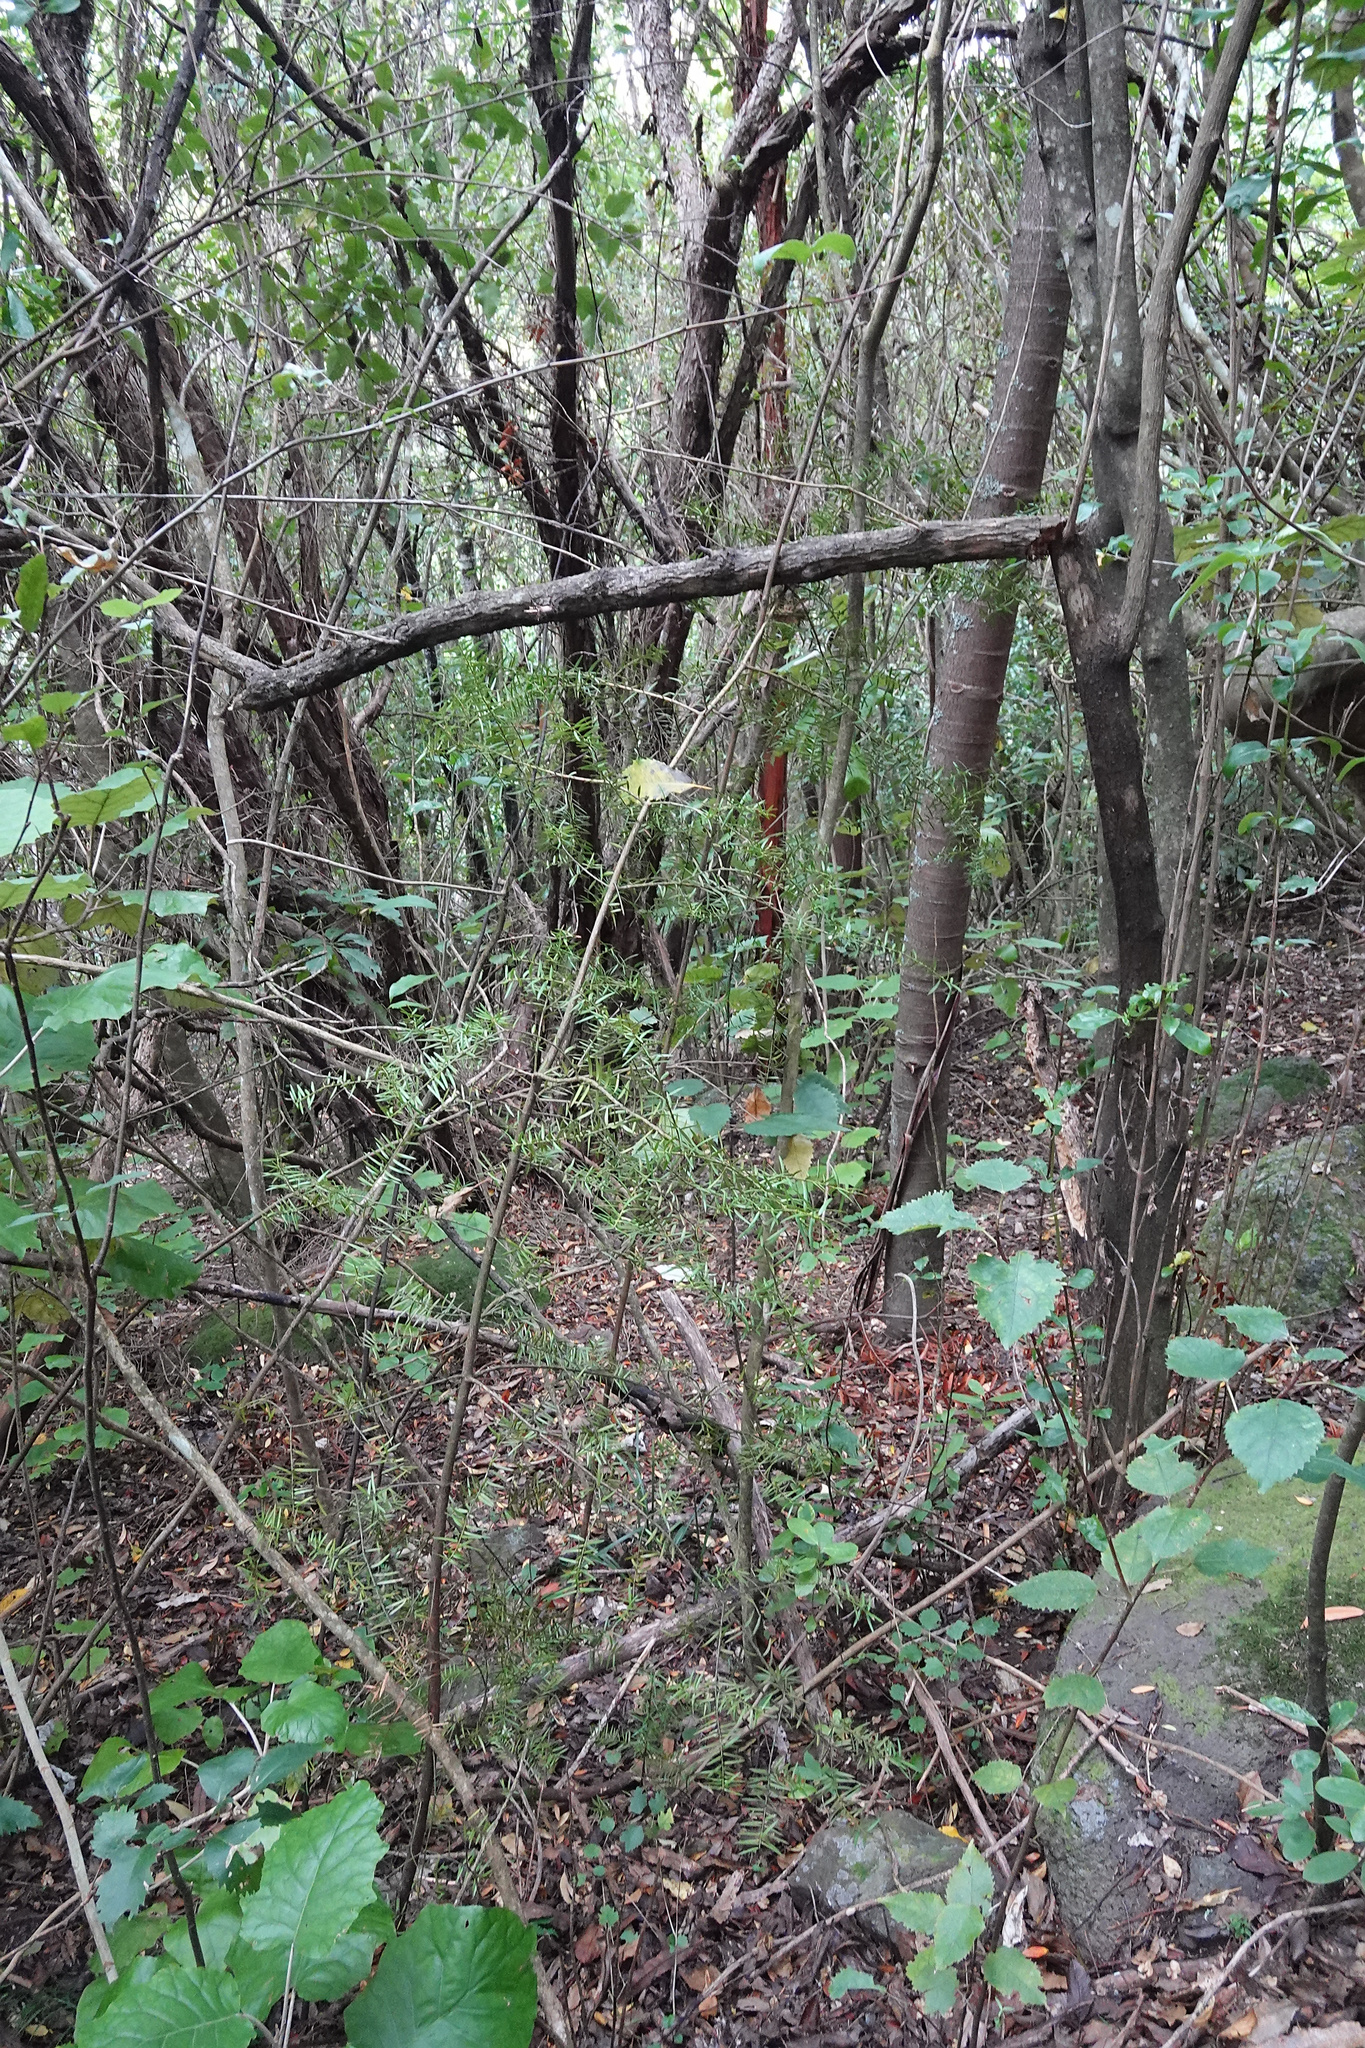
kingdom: Plantae
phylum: Tracheophyta
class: Pinopsida
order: Pinales
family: Podocarpaceae
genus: Podocarpus
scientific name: Podocarpus totara
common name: Totara
